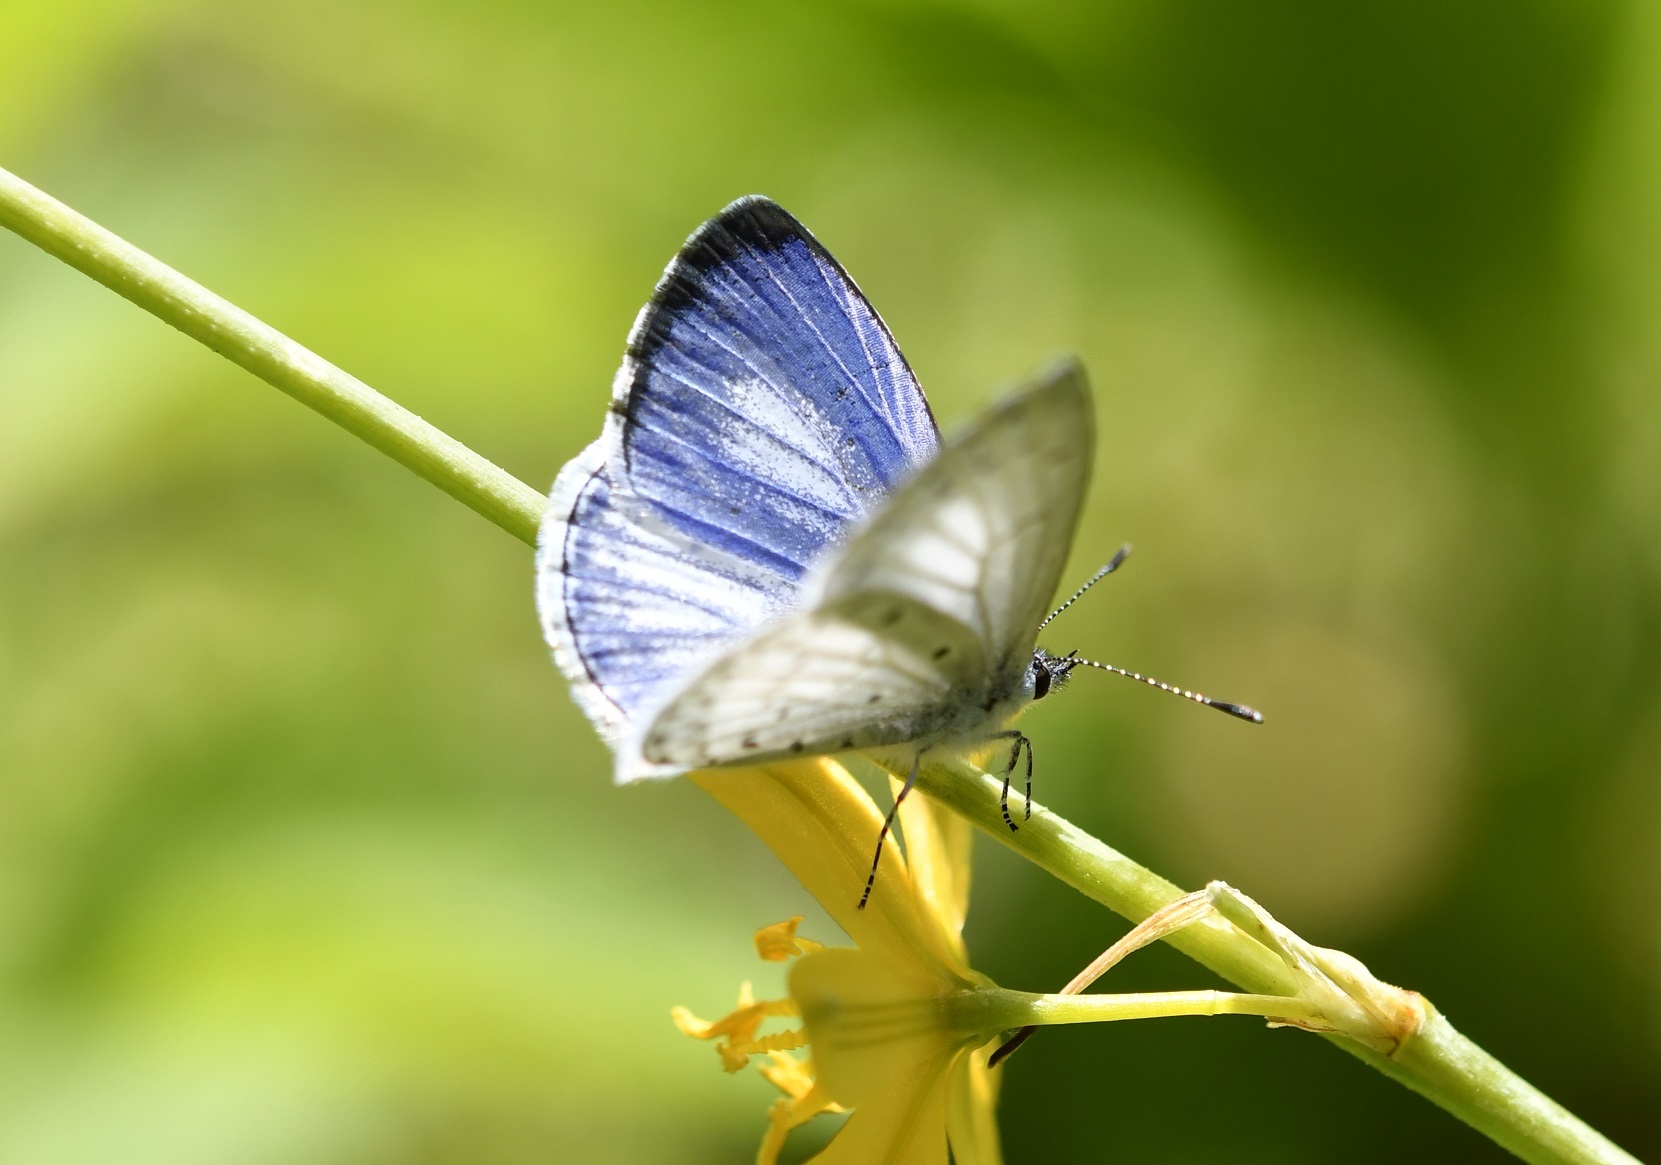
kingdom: Animalia
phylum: Arthropoda
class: Insecta
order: Lepidoptera
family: Lycaenidae
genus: Celastrina
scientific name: Celastrina ladon
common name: Spring azure
